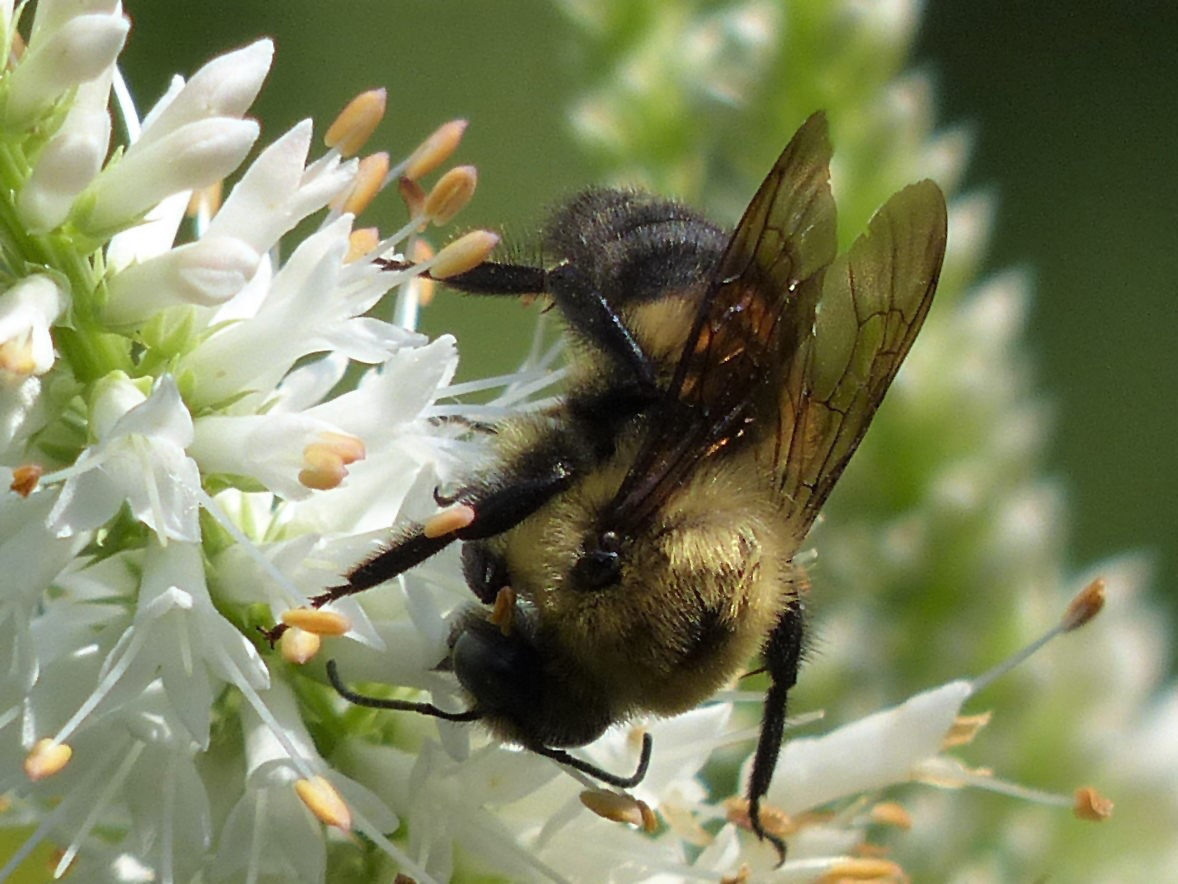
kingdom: Animalia
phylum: Arthropoda
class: Insecta
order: Hymenoptera
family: Apidae
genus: Bombus
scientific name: Bombus griseocollis
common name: Brown-belted bumble bee
